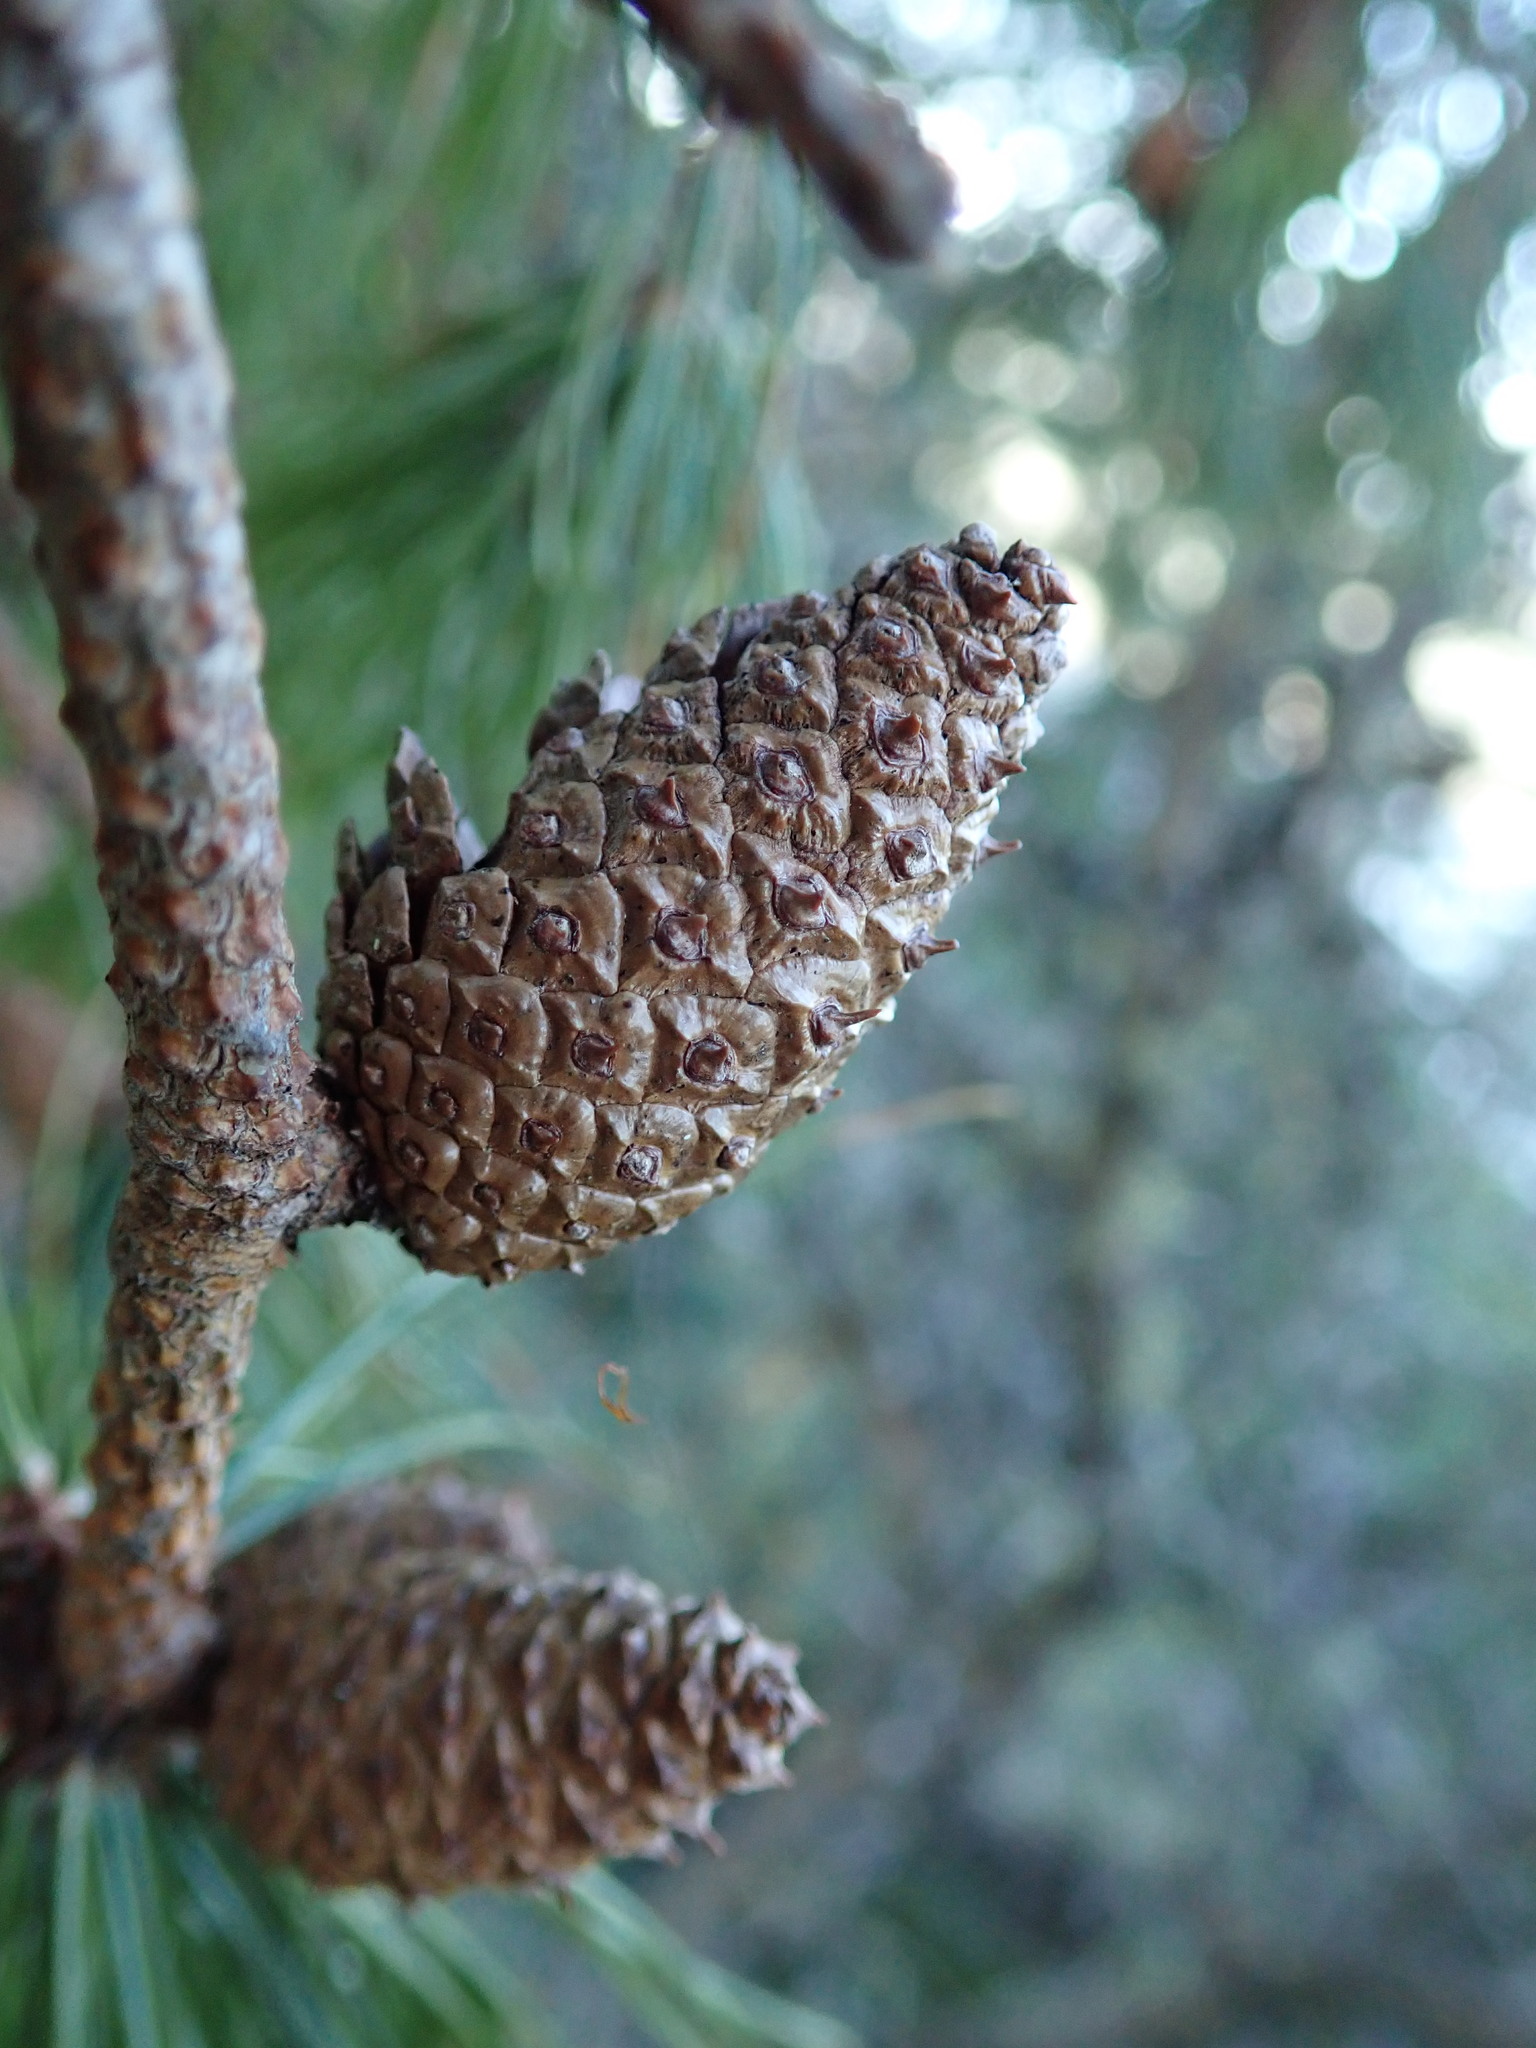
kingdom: Plantae
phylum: Tracheophyta
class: Pinopsida
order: Pinales
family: Pinaceae
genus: Pinus
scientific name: Pinus contorta
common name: Lodgepole pine
